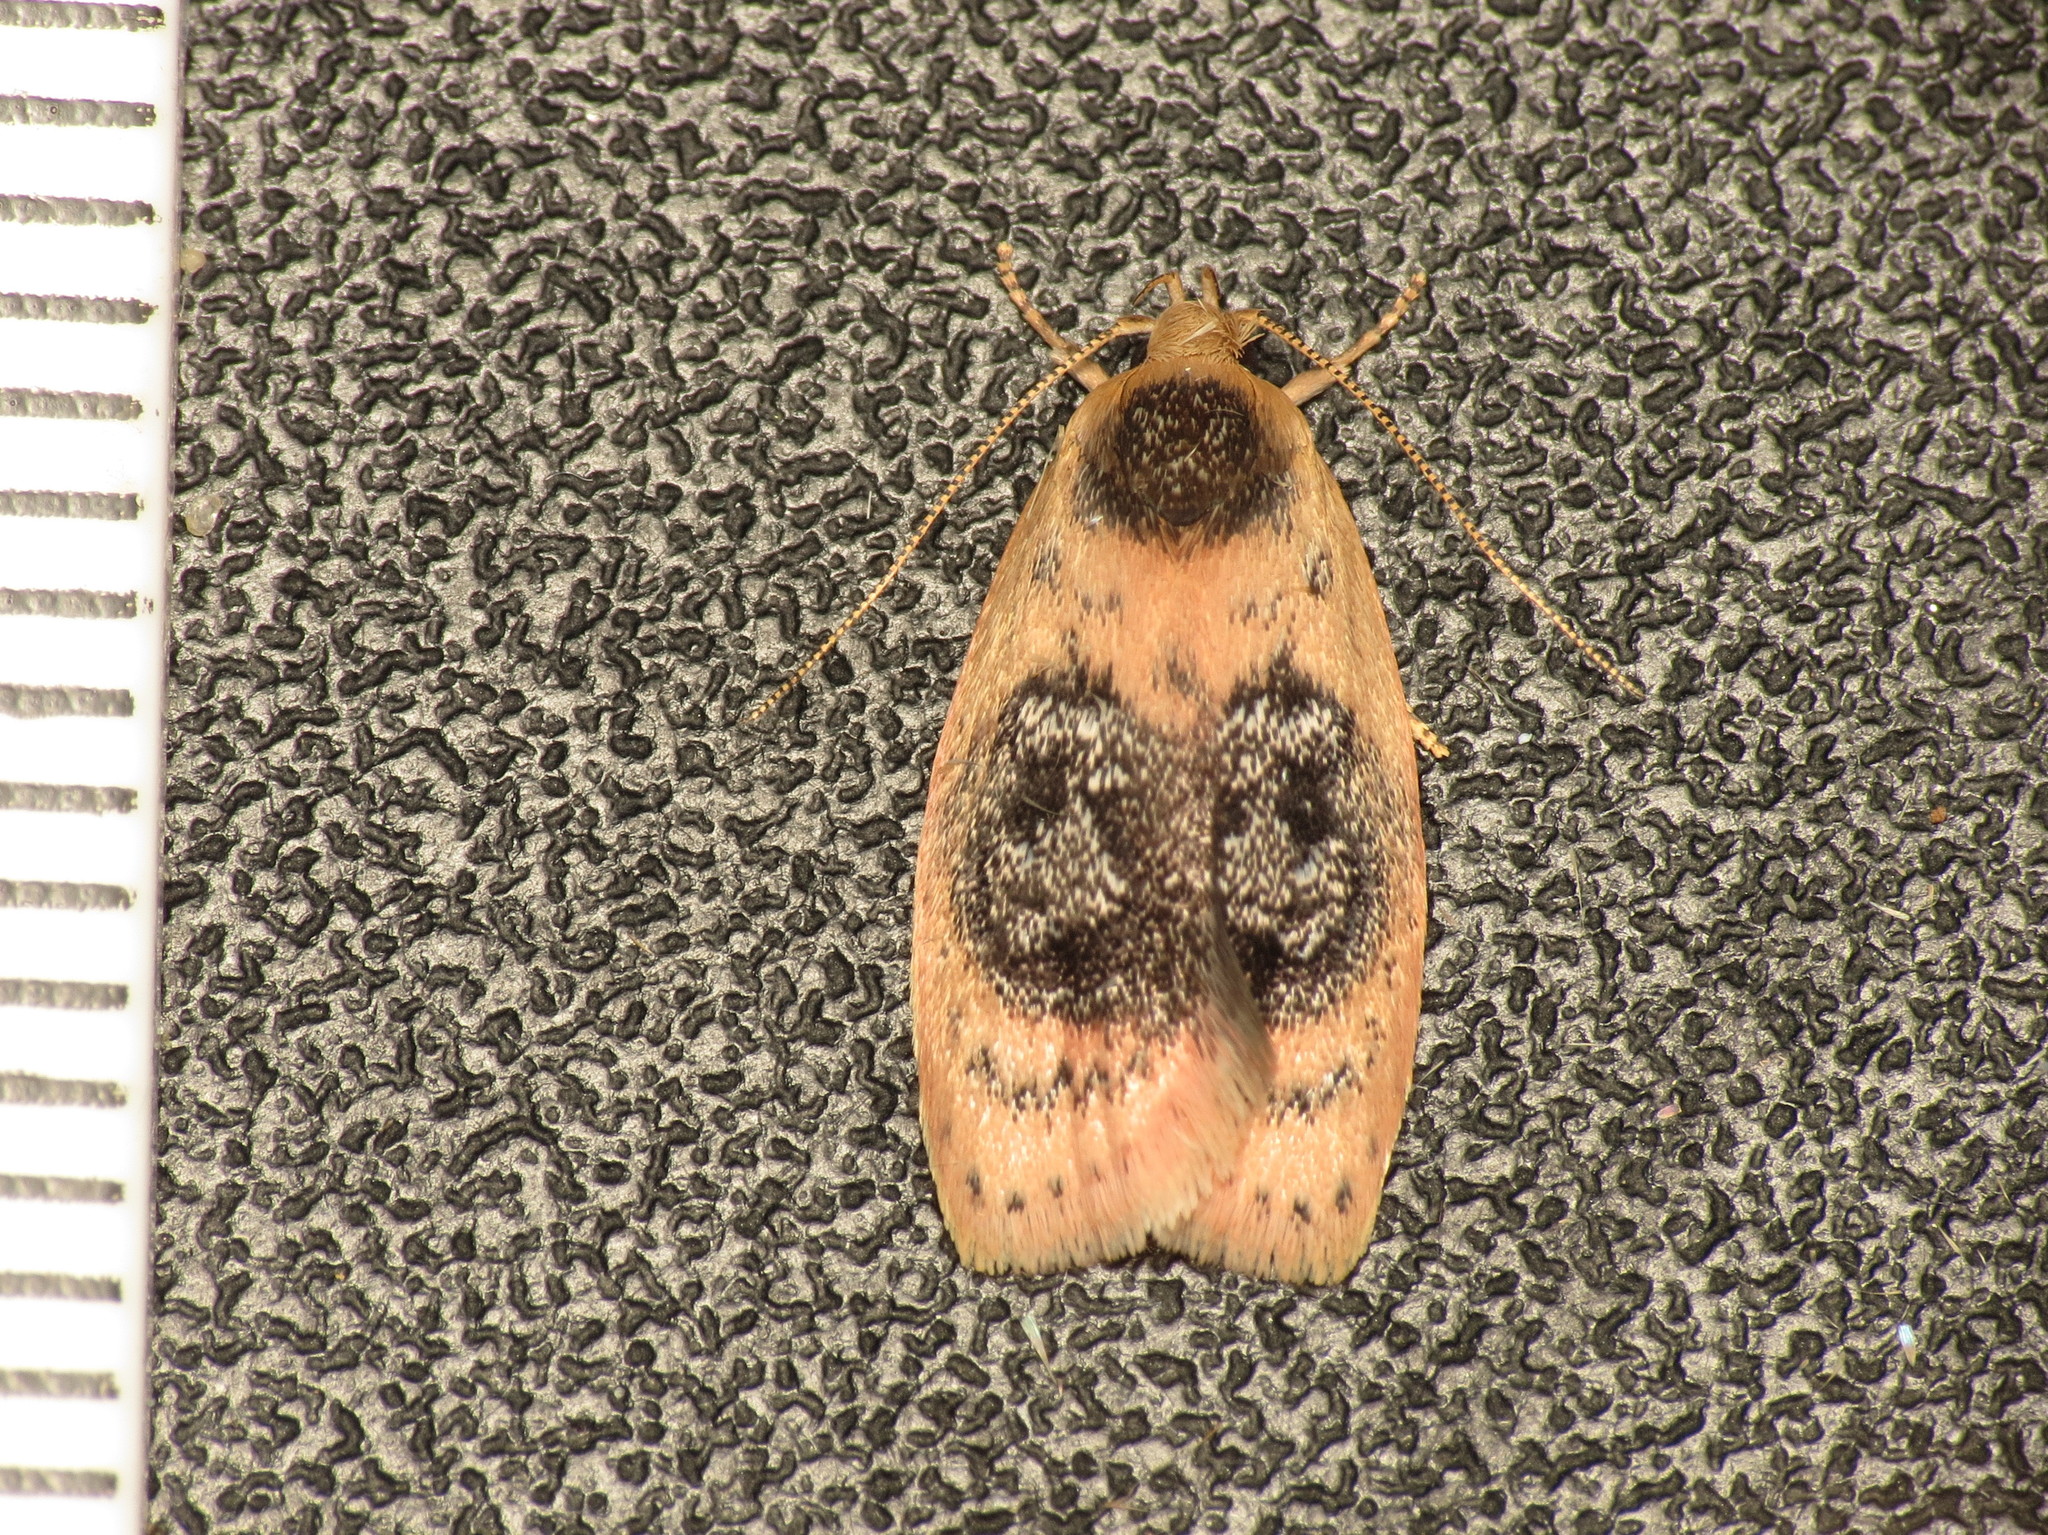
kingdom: Animalia
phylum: Arthropoda
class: Insecta
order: Lepidoptera
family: Oecophoridae
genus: Garrha
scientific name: Garrha ocellifera
